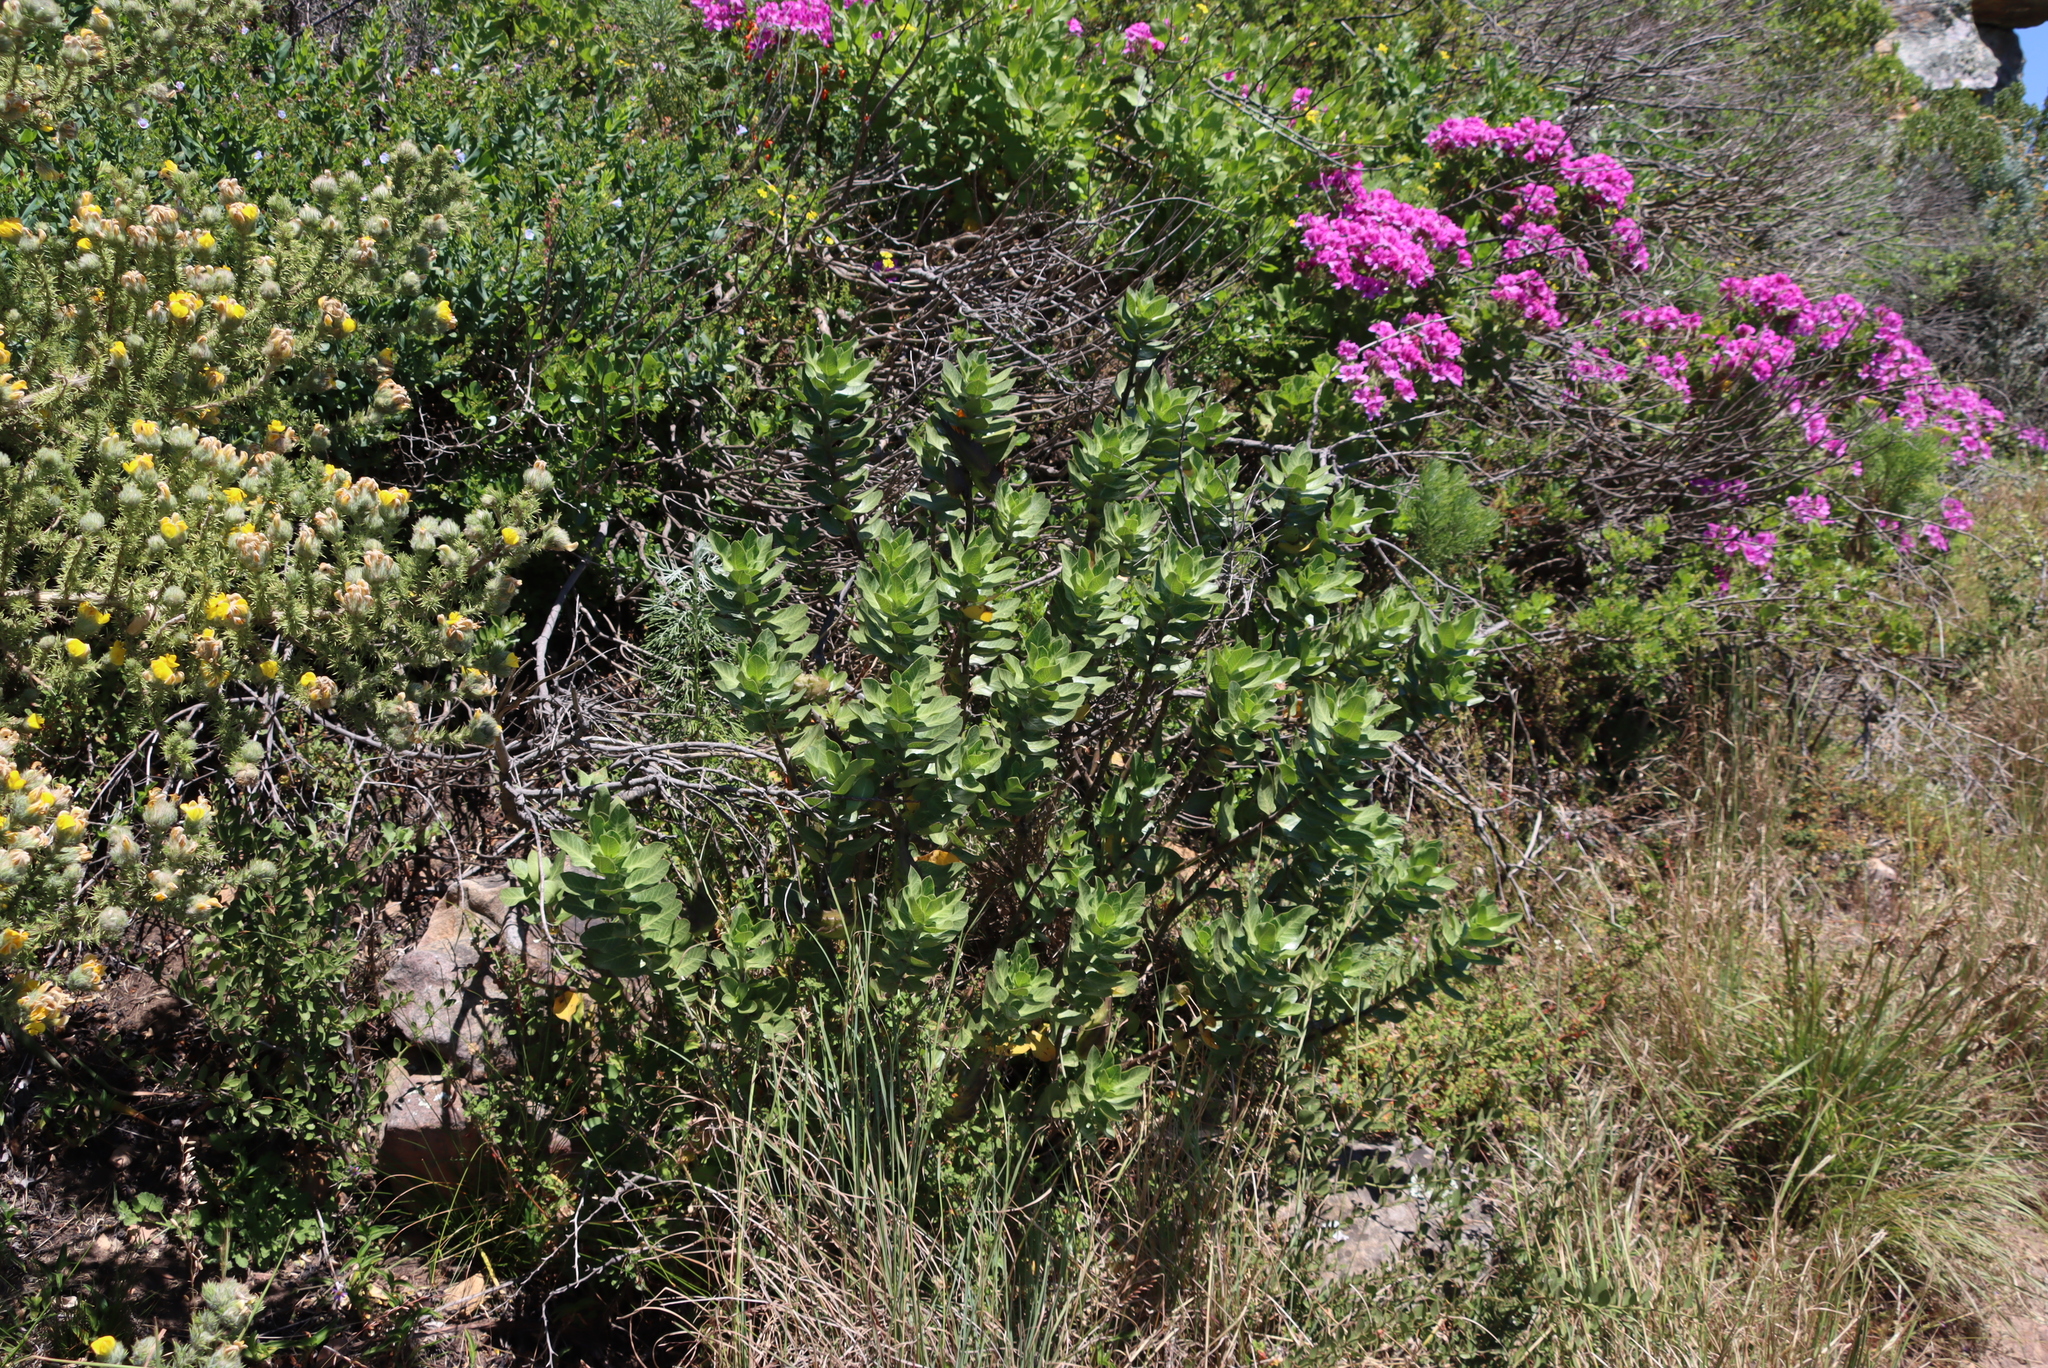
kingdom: Plantae
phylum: Tracheophyta
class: Magnoliopsida
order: Gentianales
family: Apocynaceae
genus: Gomphocarpus
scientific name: Gomphocarpus cancellatus
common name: Wild cotton
